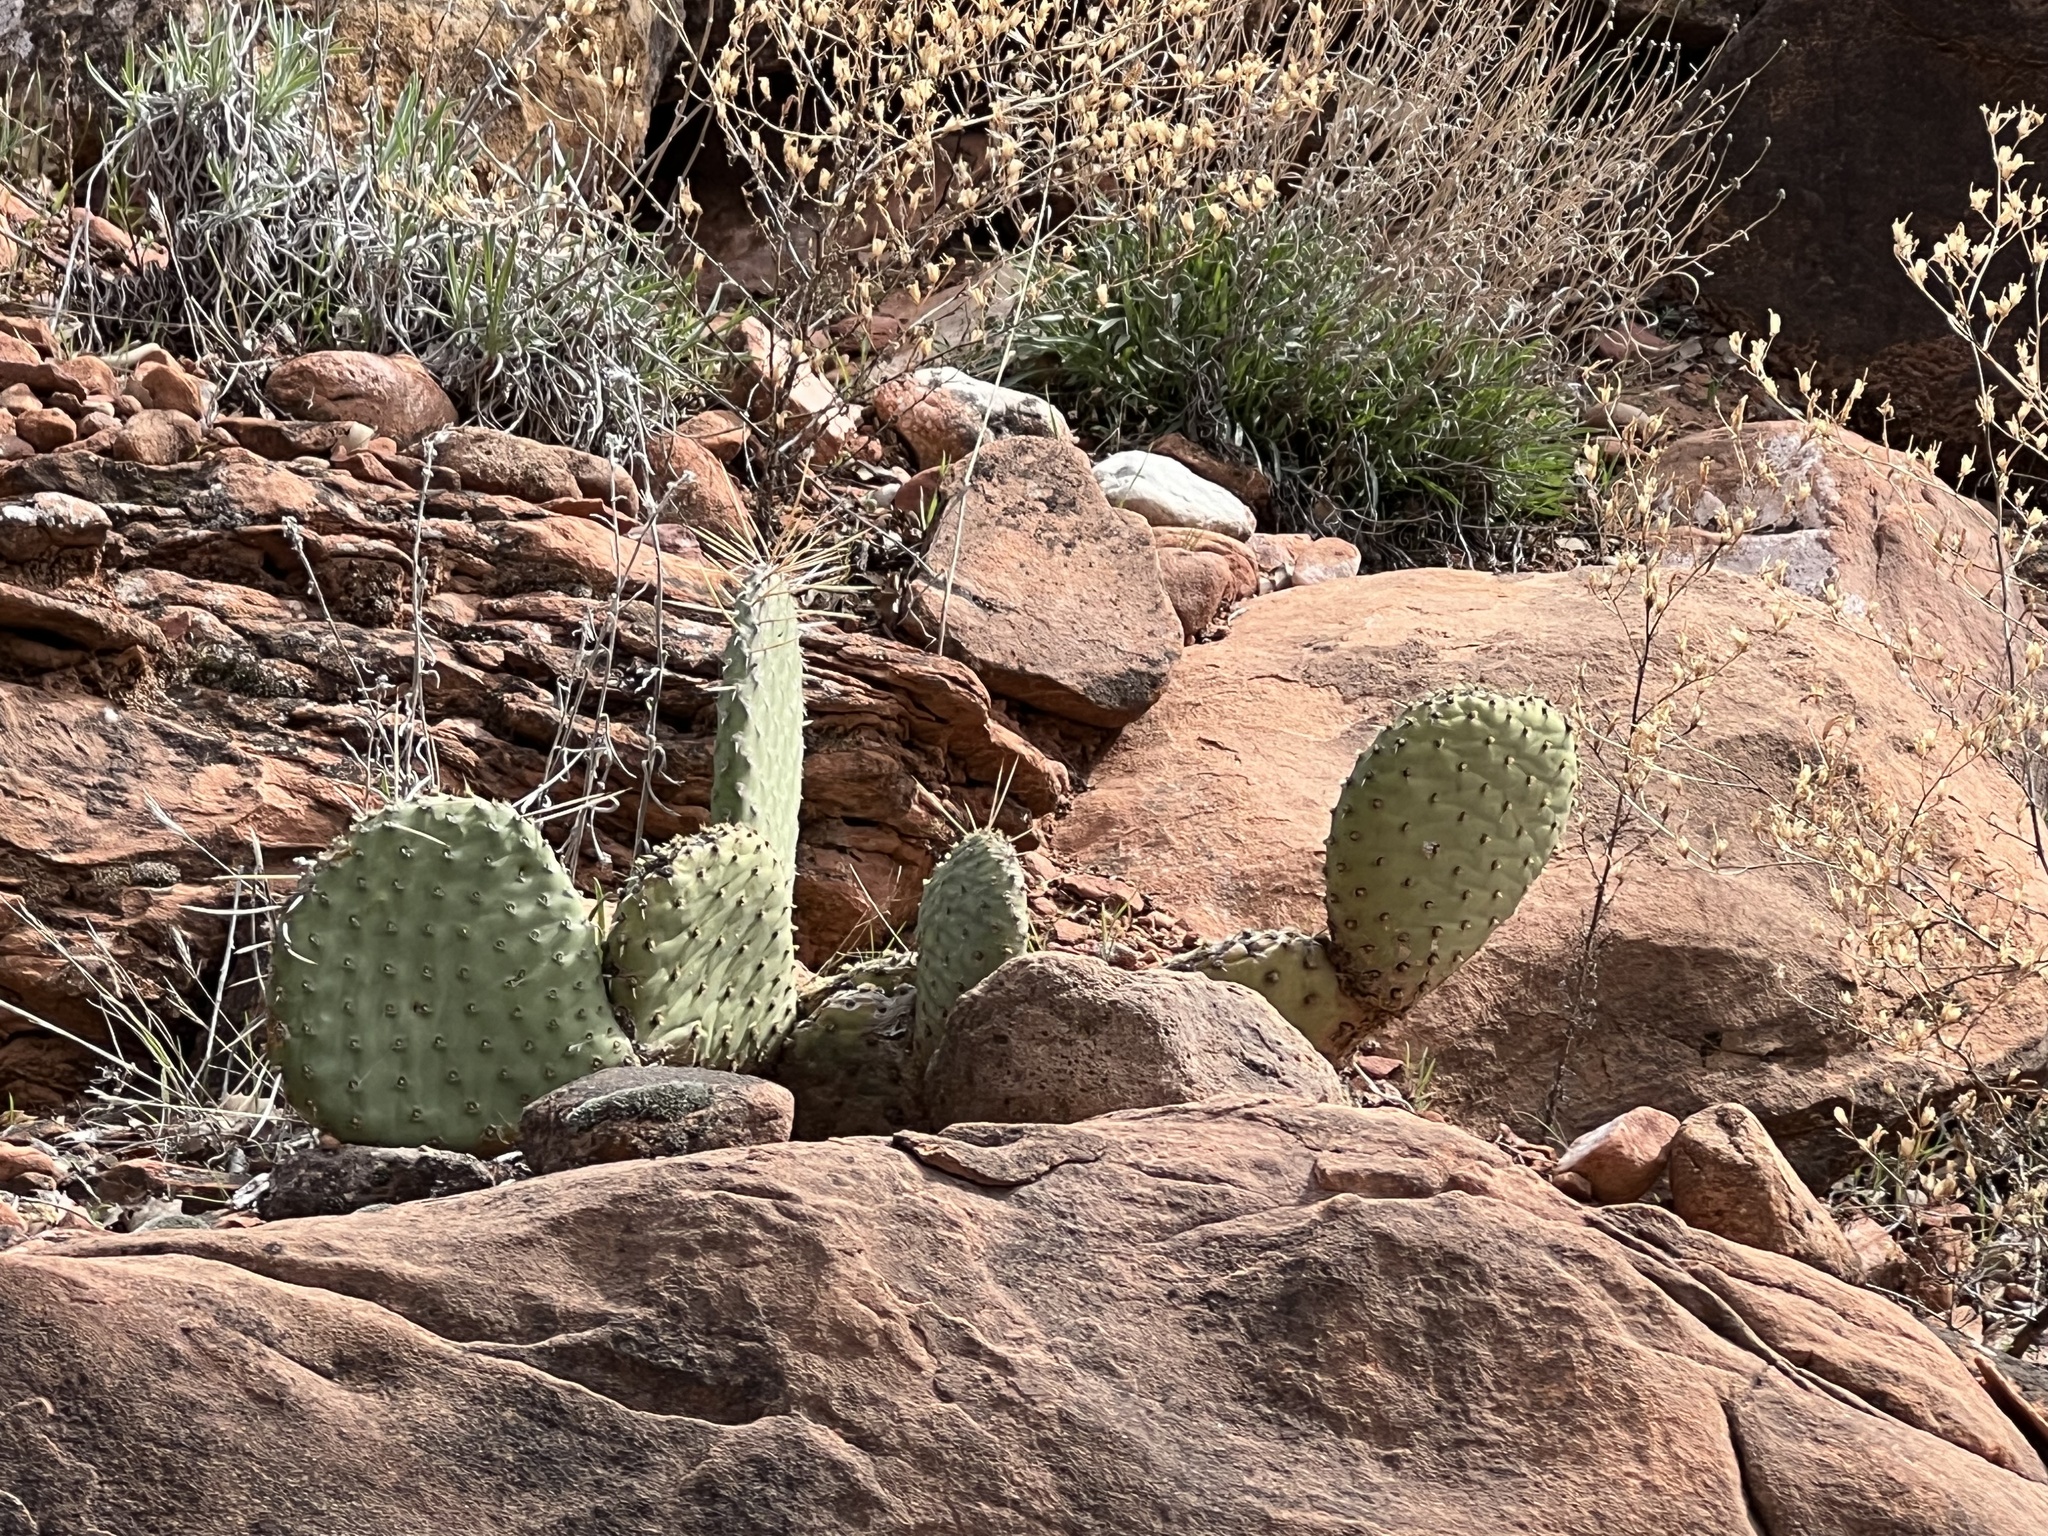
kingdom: Plantae
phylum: Tracheophyta
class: Magnoliopsida
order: Caryophyllales
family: Cactaceae
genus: Opuntia
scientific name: Opuntia aurea
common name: Golden prickly-pear
